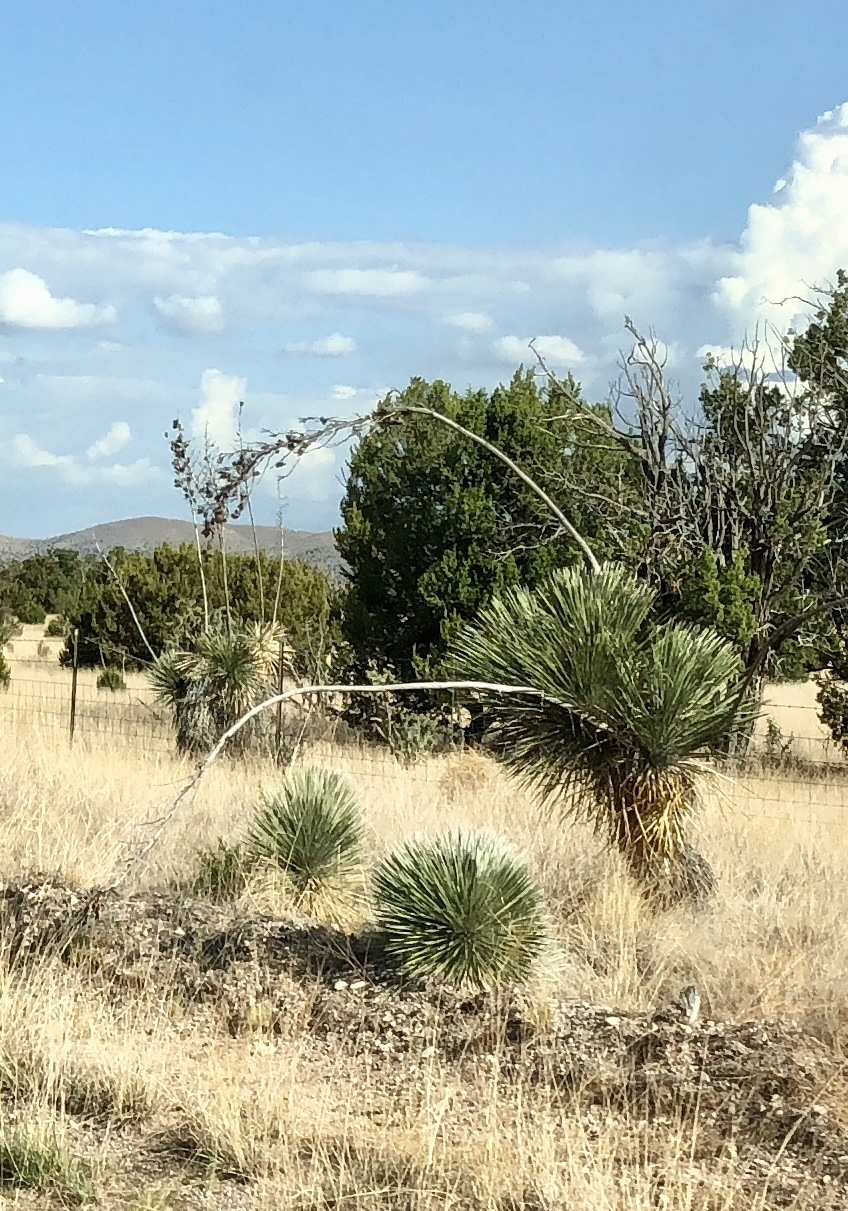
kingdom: Plantae
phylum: Tracheophyta
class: Liliopsida
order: Asparagales
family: Asparagaceae
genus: Yucca
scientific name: Yucca elata
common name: Palmella
